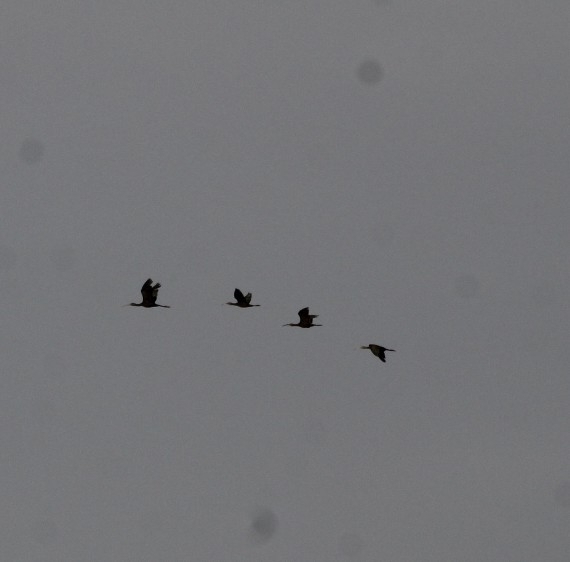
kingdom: Animalia
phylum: Chordata
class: Aves
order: Pelecaniformes
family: Threskiornithidae
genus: Plegadis
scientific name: Plegadis chihi
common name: White-faced ibis
